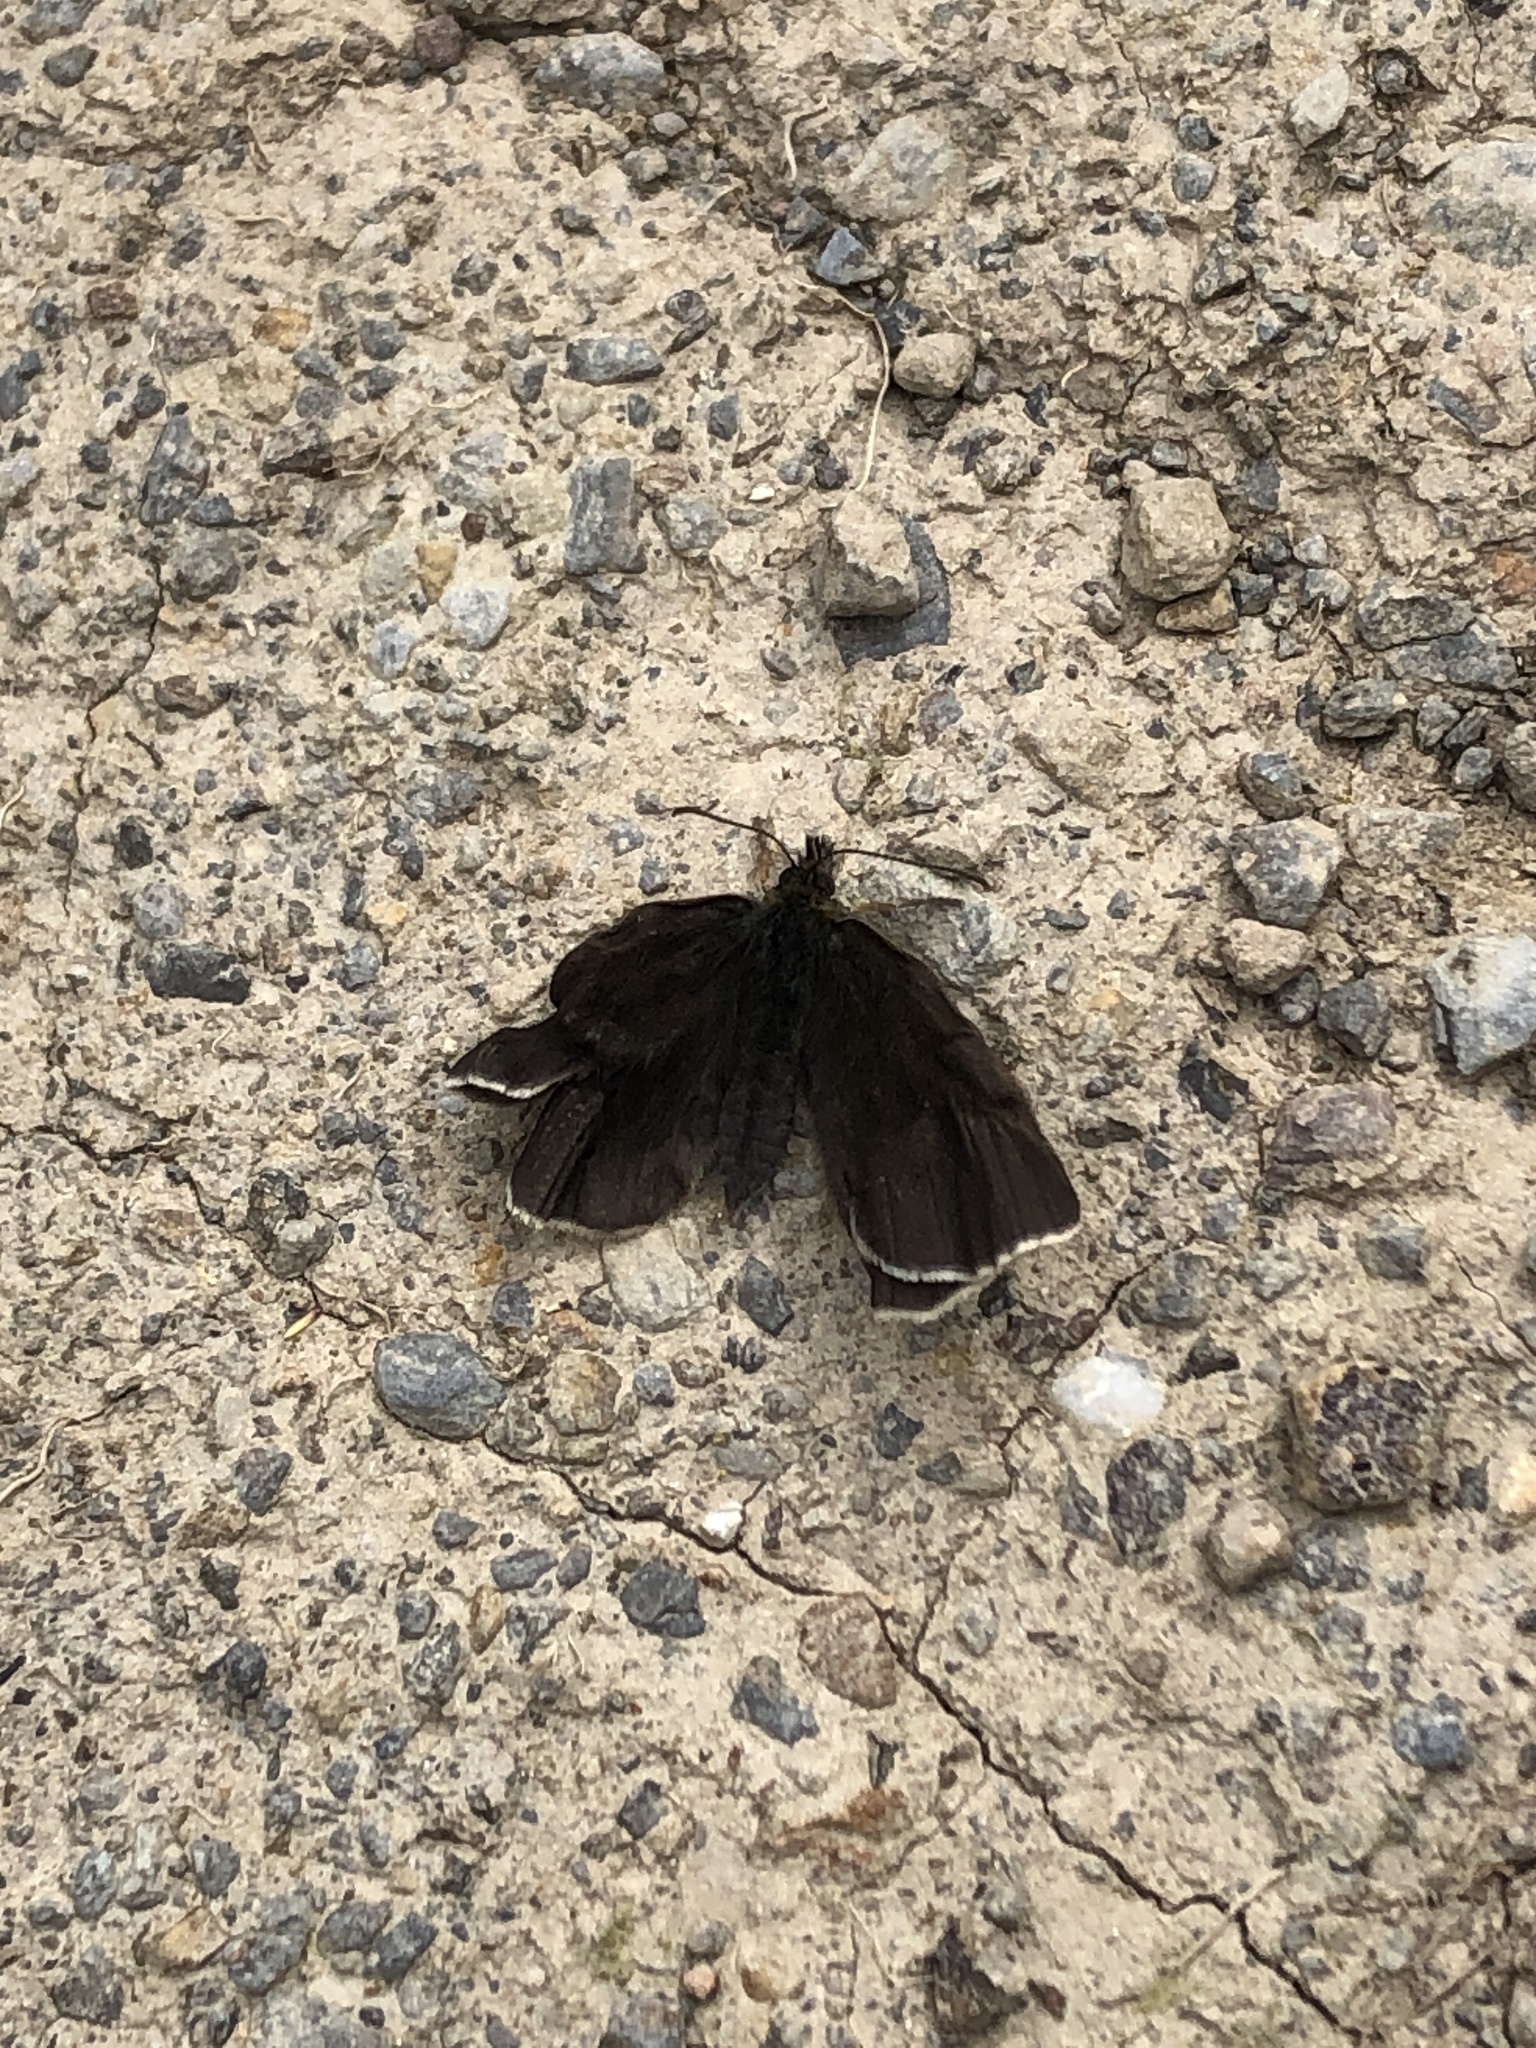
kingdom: Animalia
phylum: Arthropoda
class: Insecta
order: Lepidoptera
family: Geometridae
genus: Odezia
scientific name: Odezia atrata
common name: Chimney sweeper
